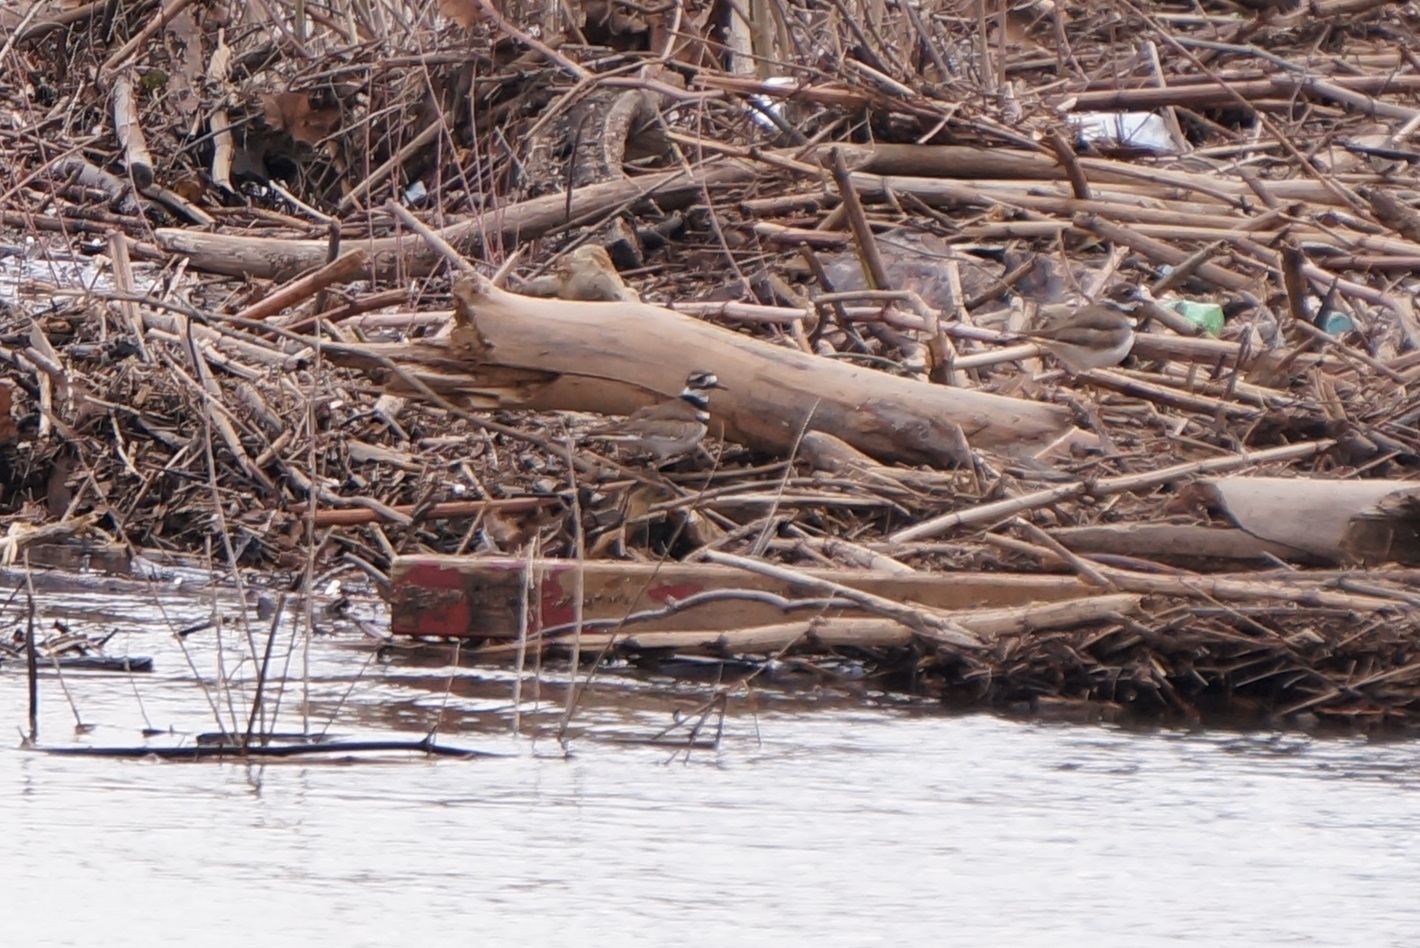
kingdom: Animalia
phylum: Chordata
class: Aves
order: Charadriiformes
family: Charadriidae
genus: Charadrius
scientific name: Charadrius vociferus
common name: Killdeer
